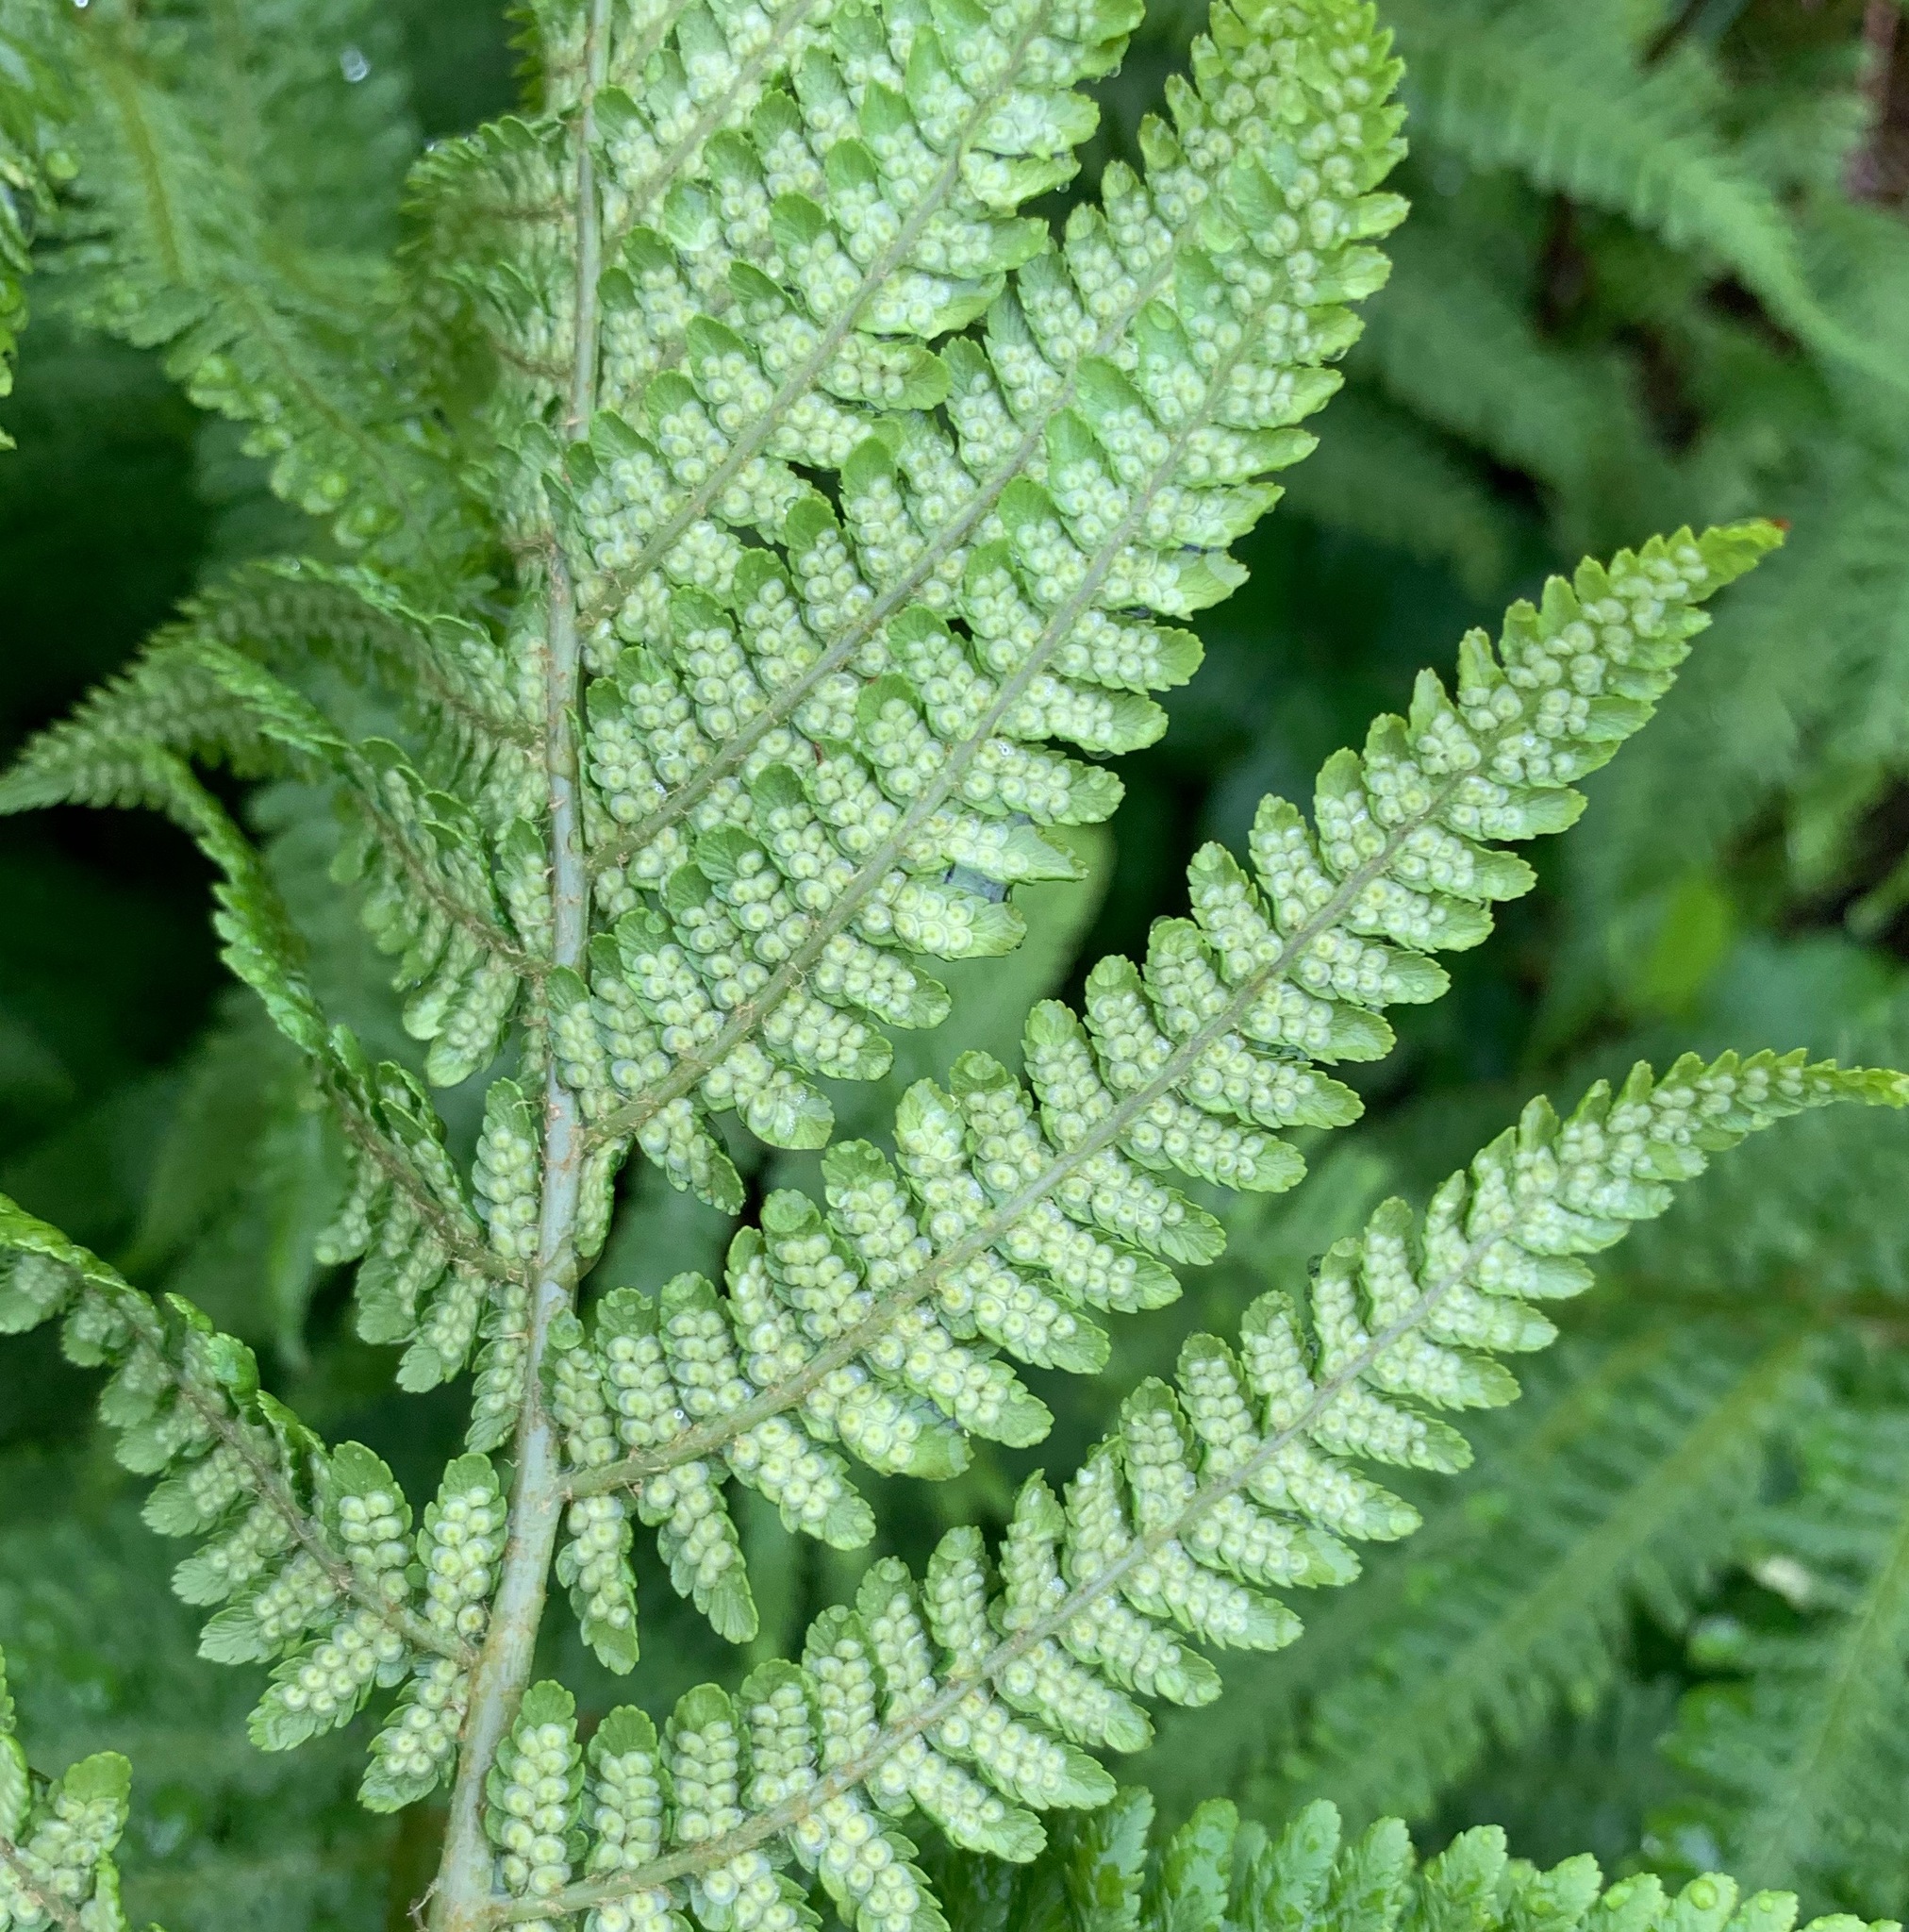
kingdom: Plantae
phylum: Tracheophyta
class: Polypodiopsida
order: Polypodiales
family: Dryopteridaceae
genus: Dryopteris
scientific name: Dryopteris filix-mas
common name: Male fern
